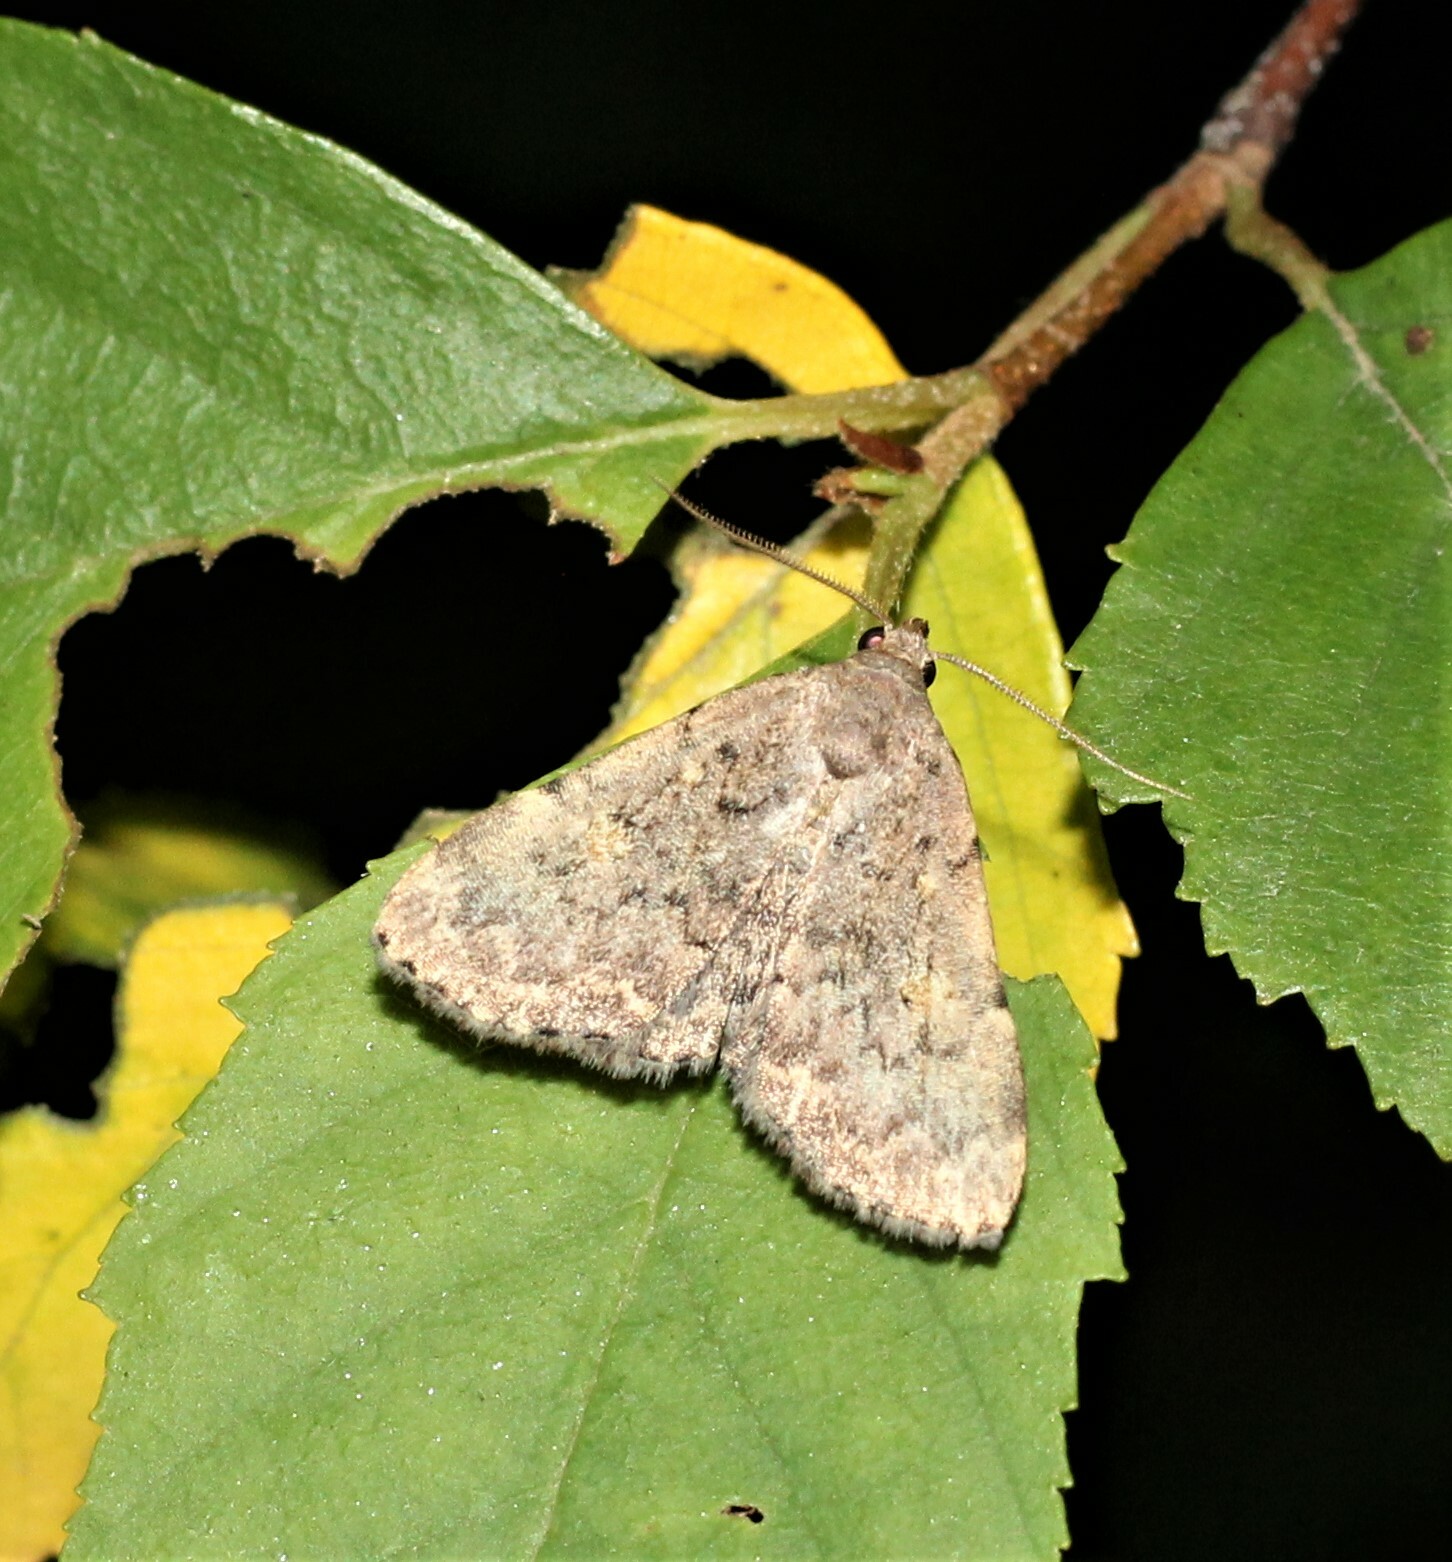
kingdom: Animalia
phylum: Arthropoda
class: Insecta
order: Lepidoptera
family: Erebidae
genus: Idia
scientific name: Idia aemula
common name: Common idia moth
